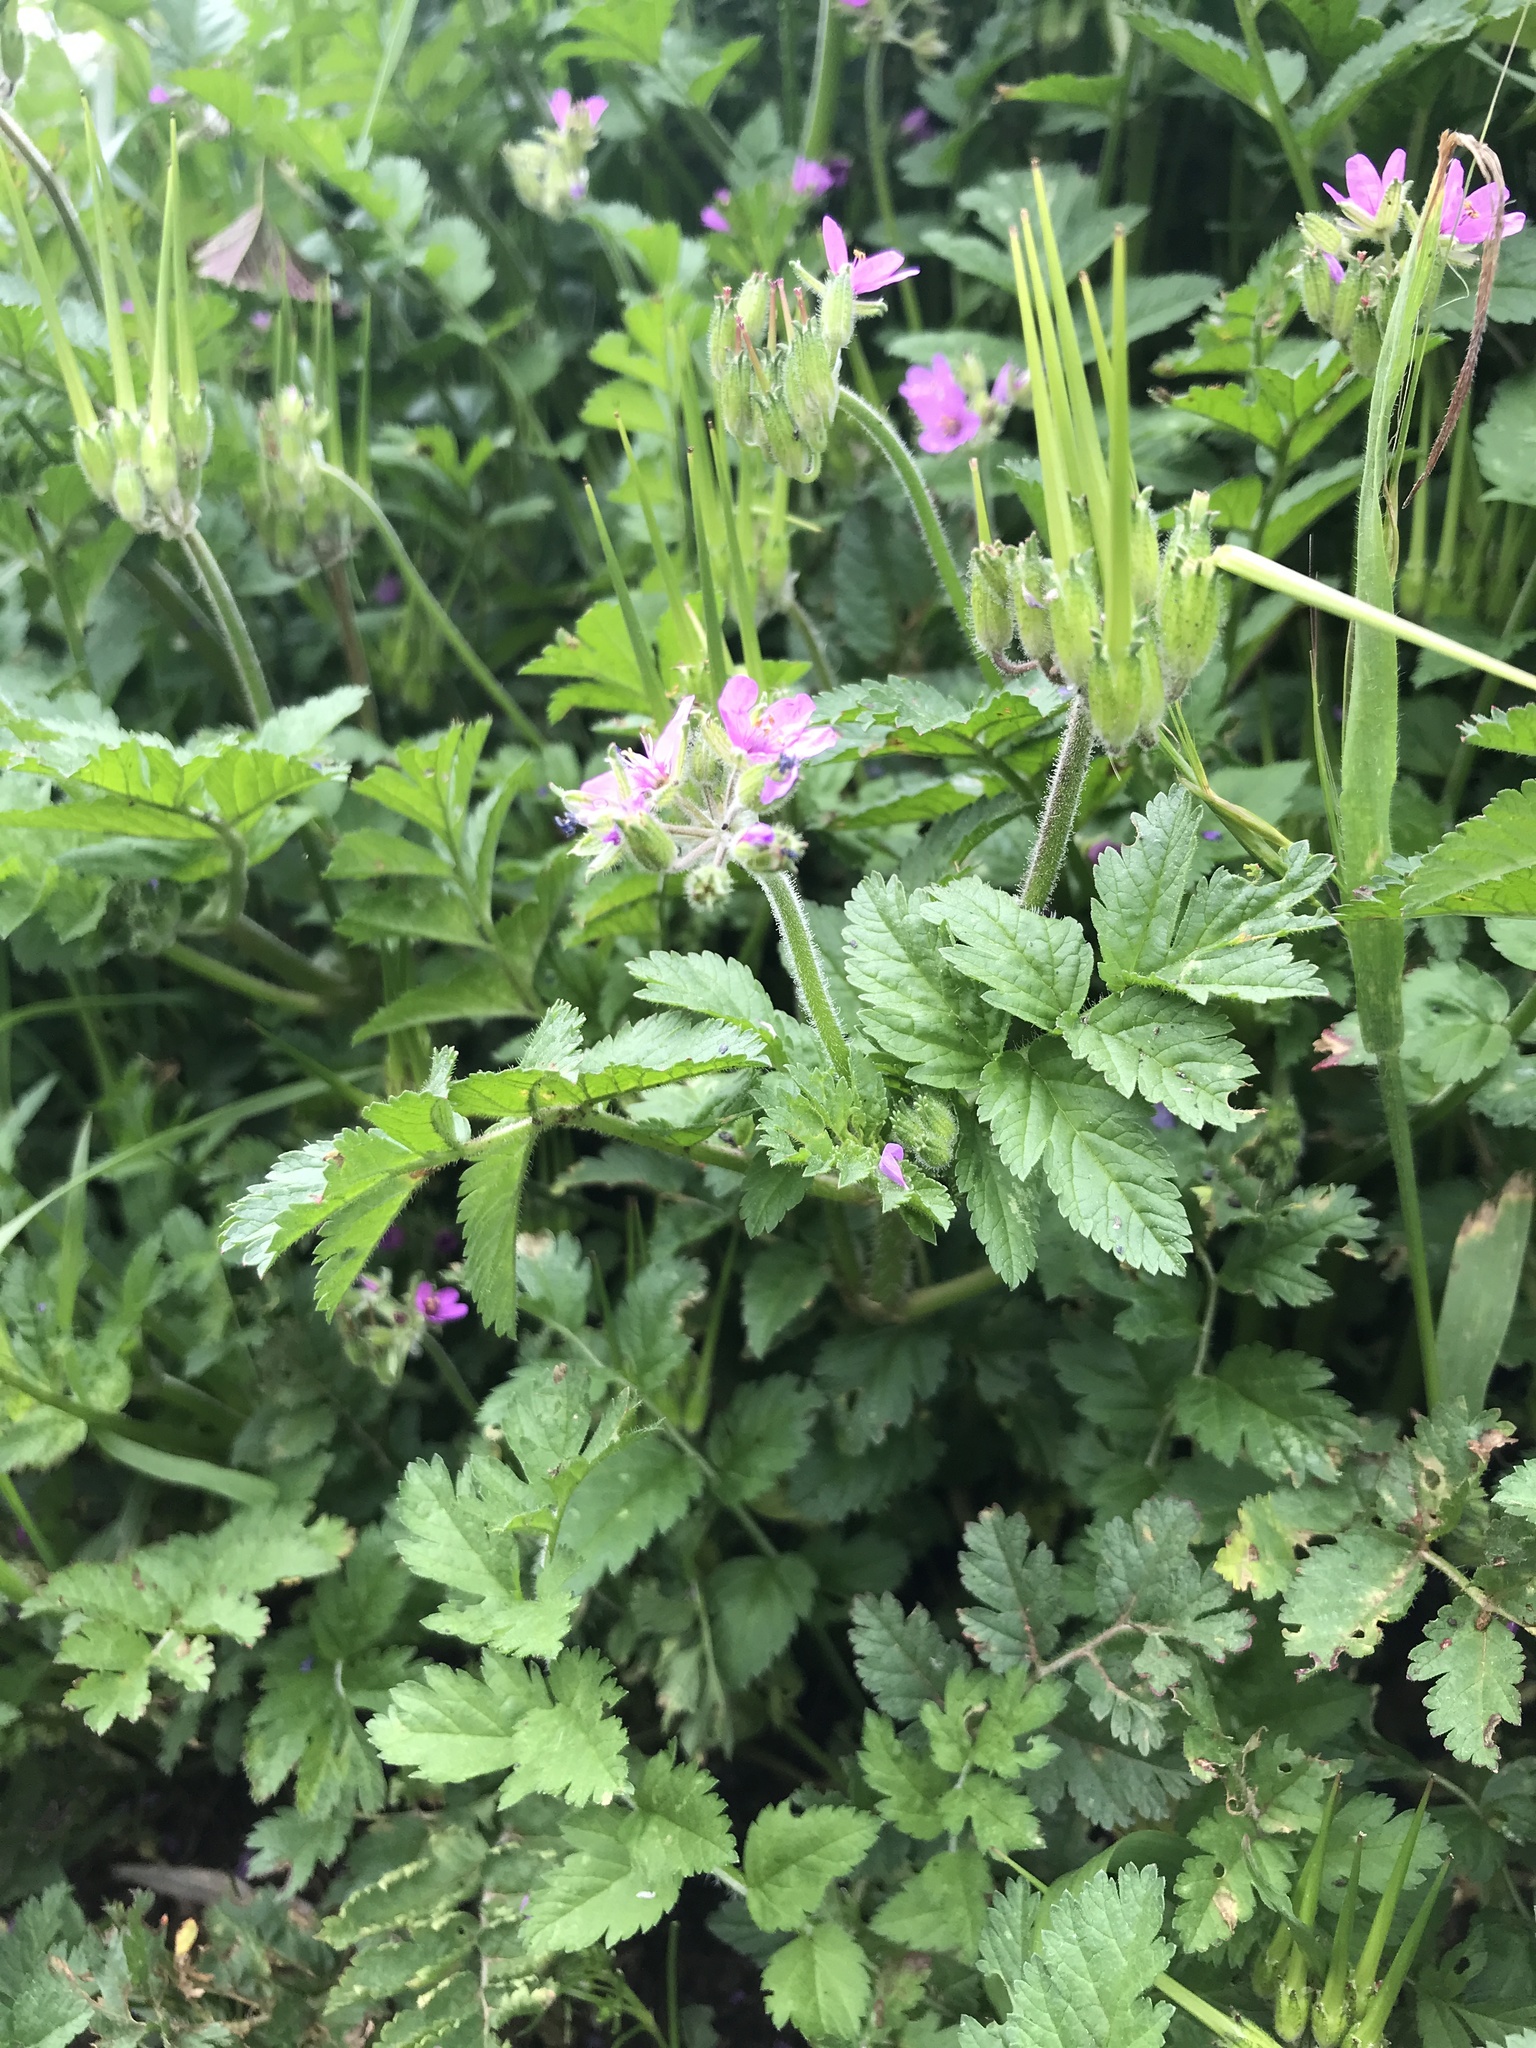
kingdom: Plantae
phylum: Tracheophyta
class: Magnoliopsida
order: Geraniales
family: Geraniaceae
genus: Erodium
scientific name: Erodium moschatum
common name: Musk stork's-bill
